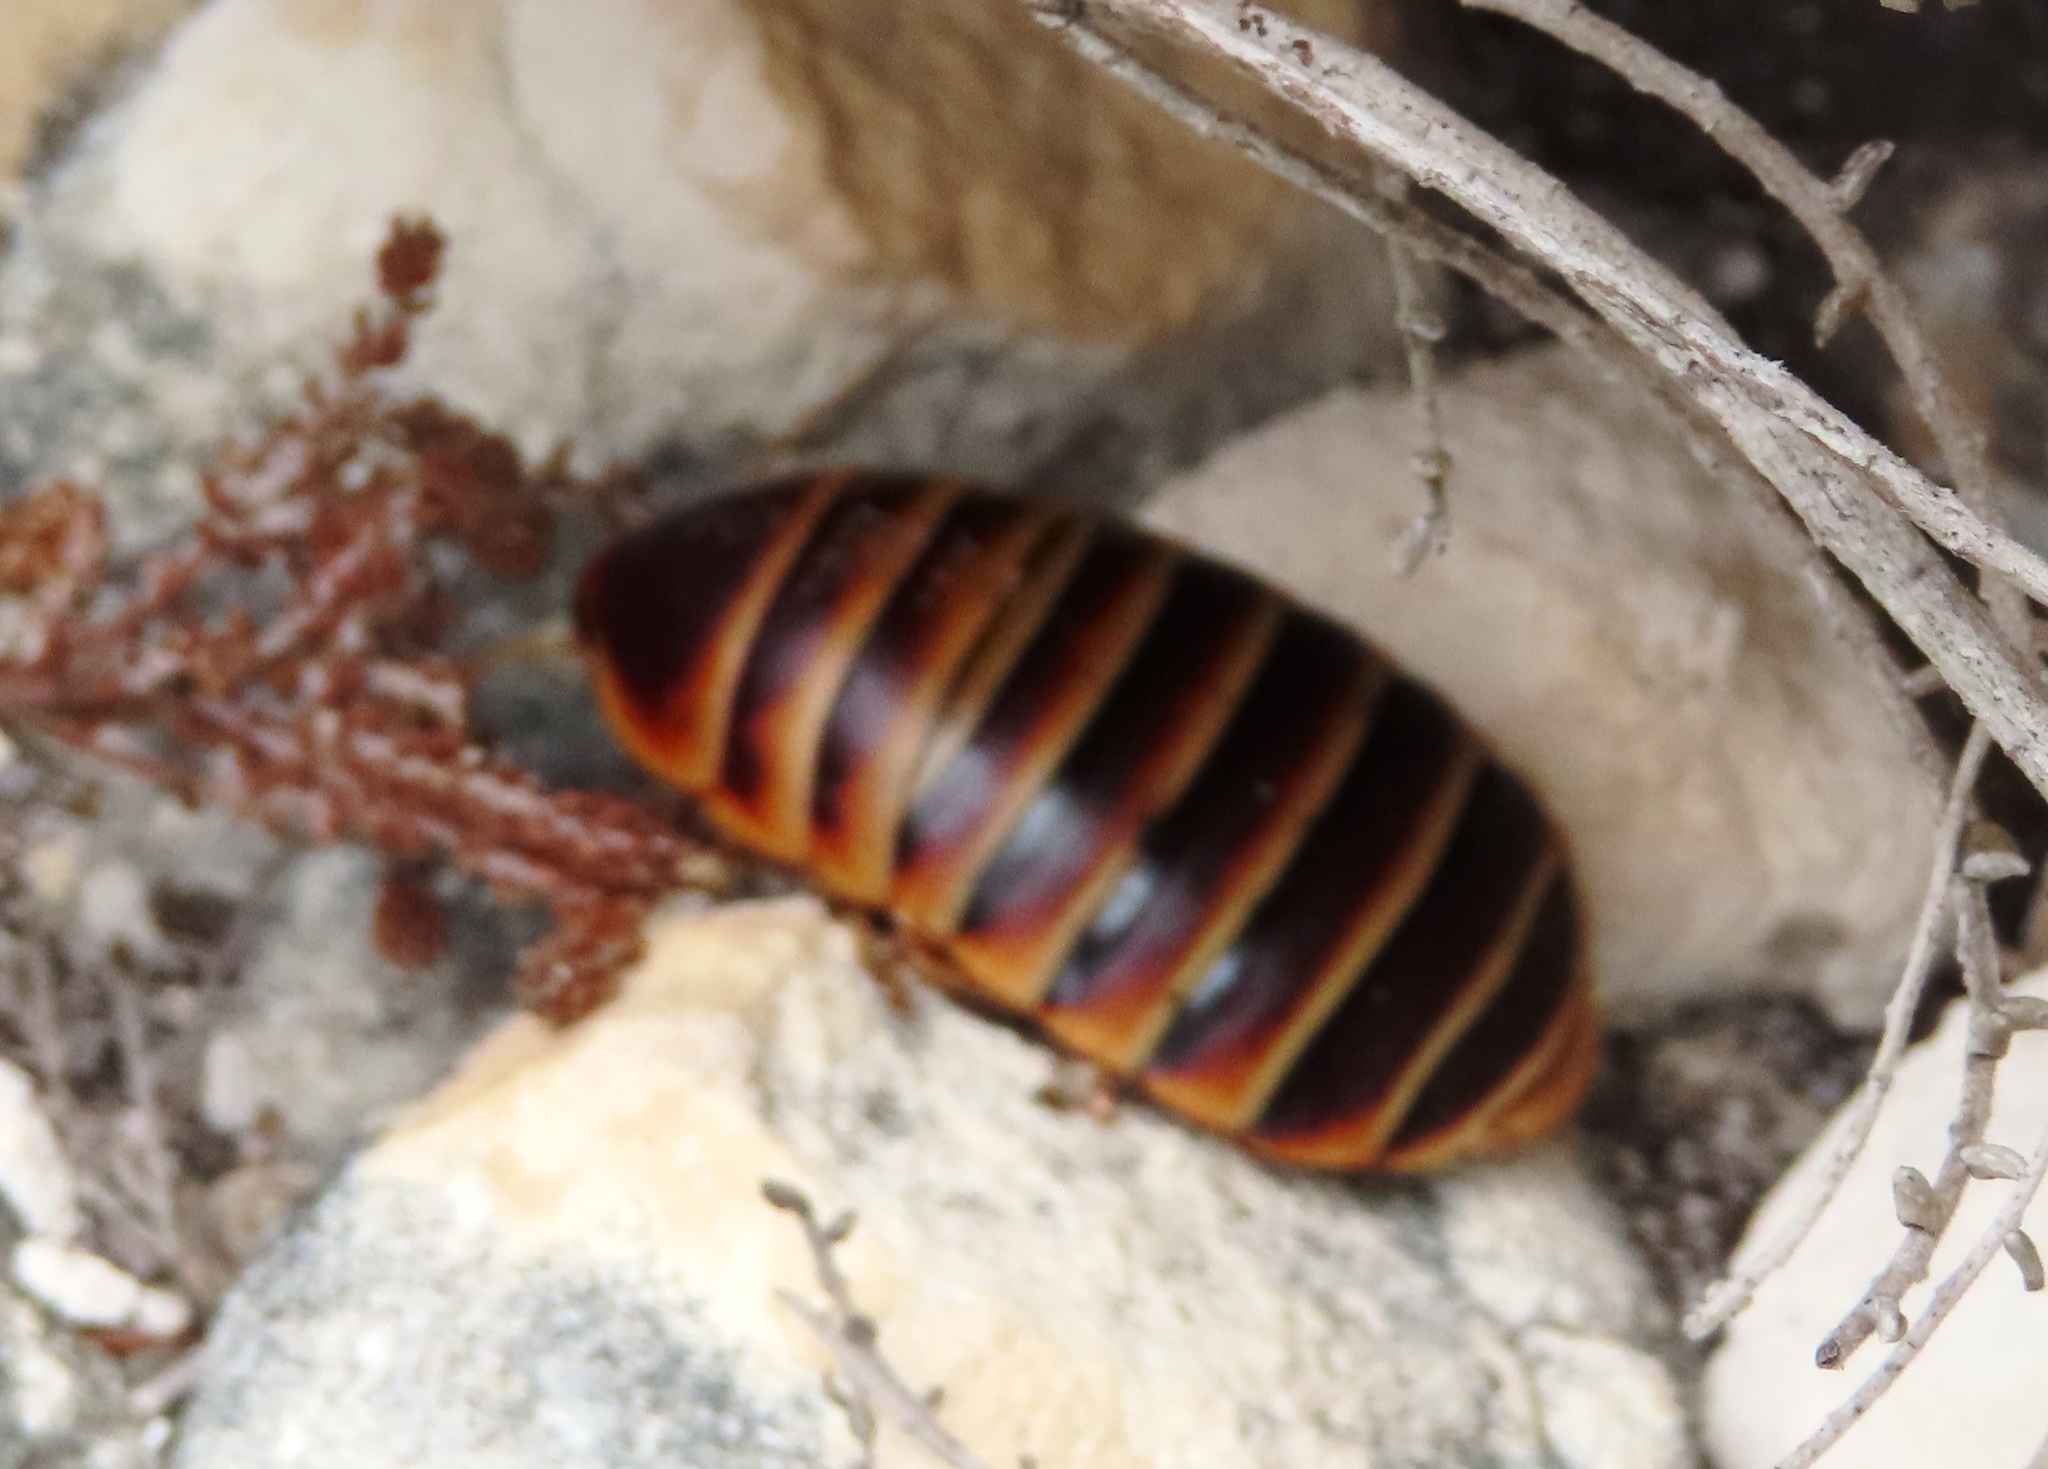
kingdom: Animalia
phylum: Arthropoda
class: Insecta
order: Blattodea
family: Blaberidae
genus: Aptera
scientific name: Aptera fusca
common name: Cape mountain cockroach
